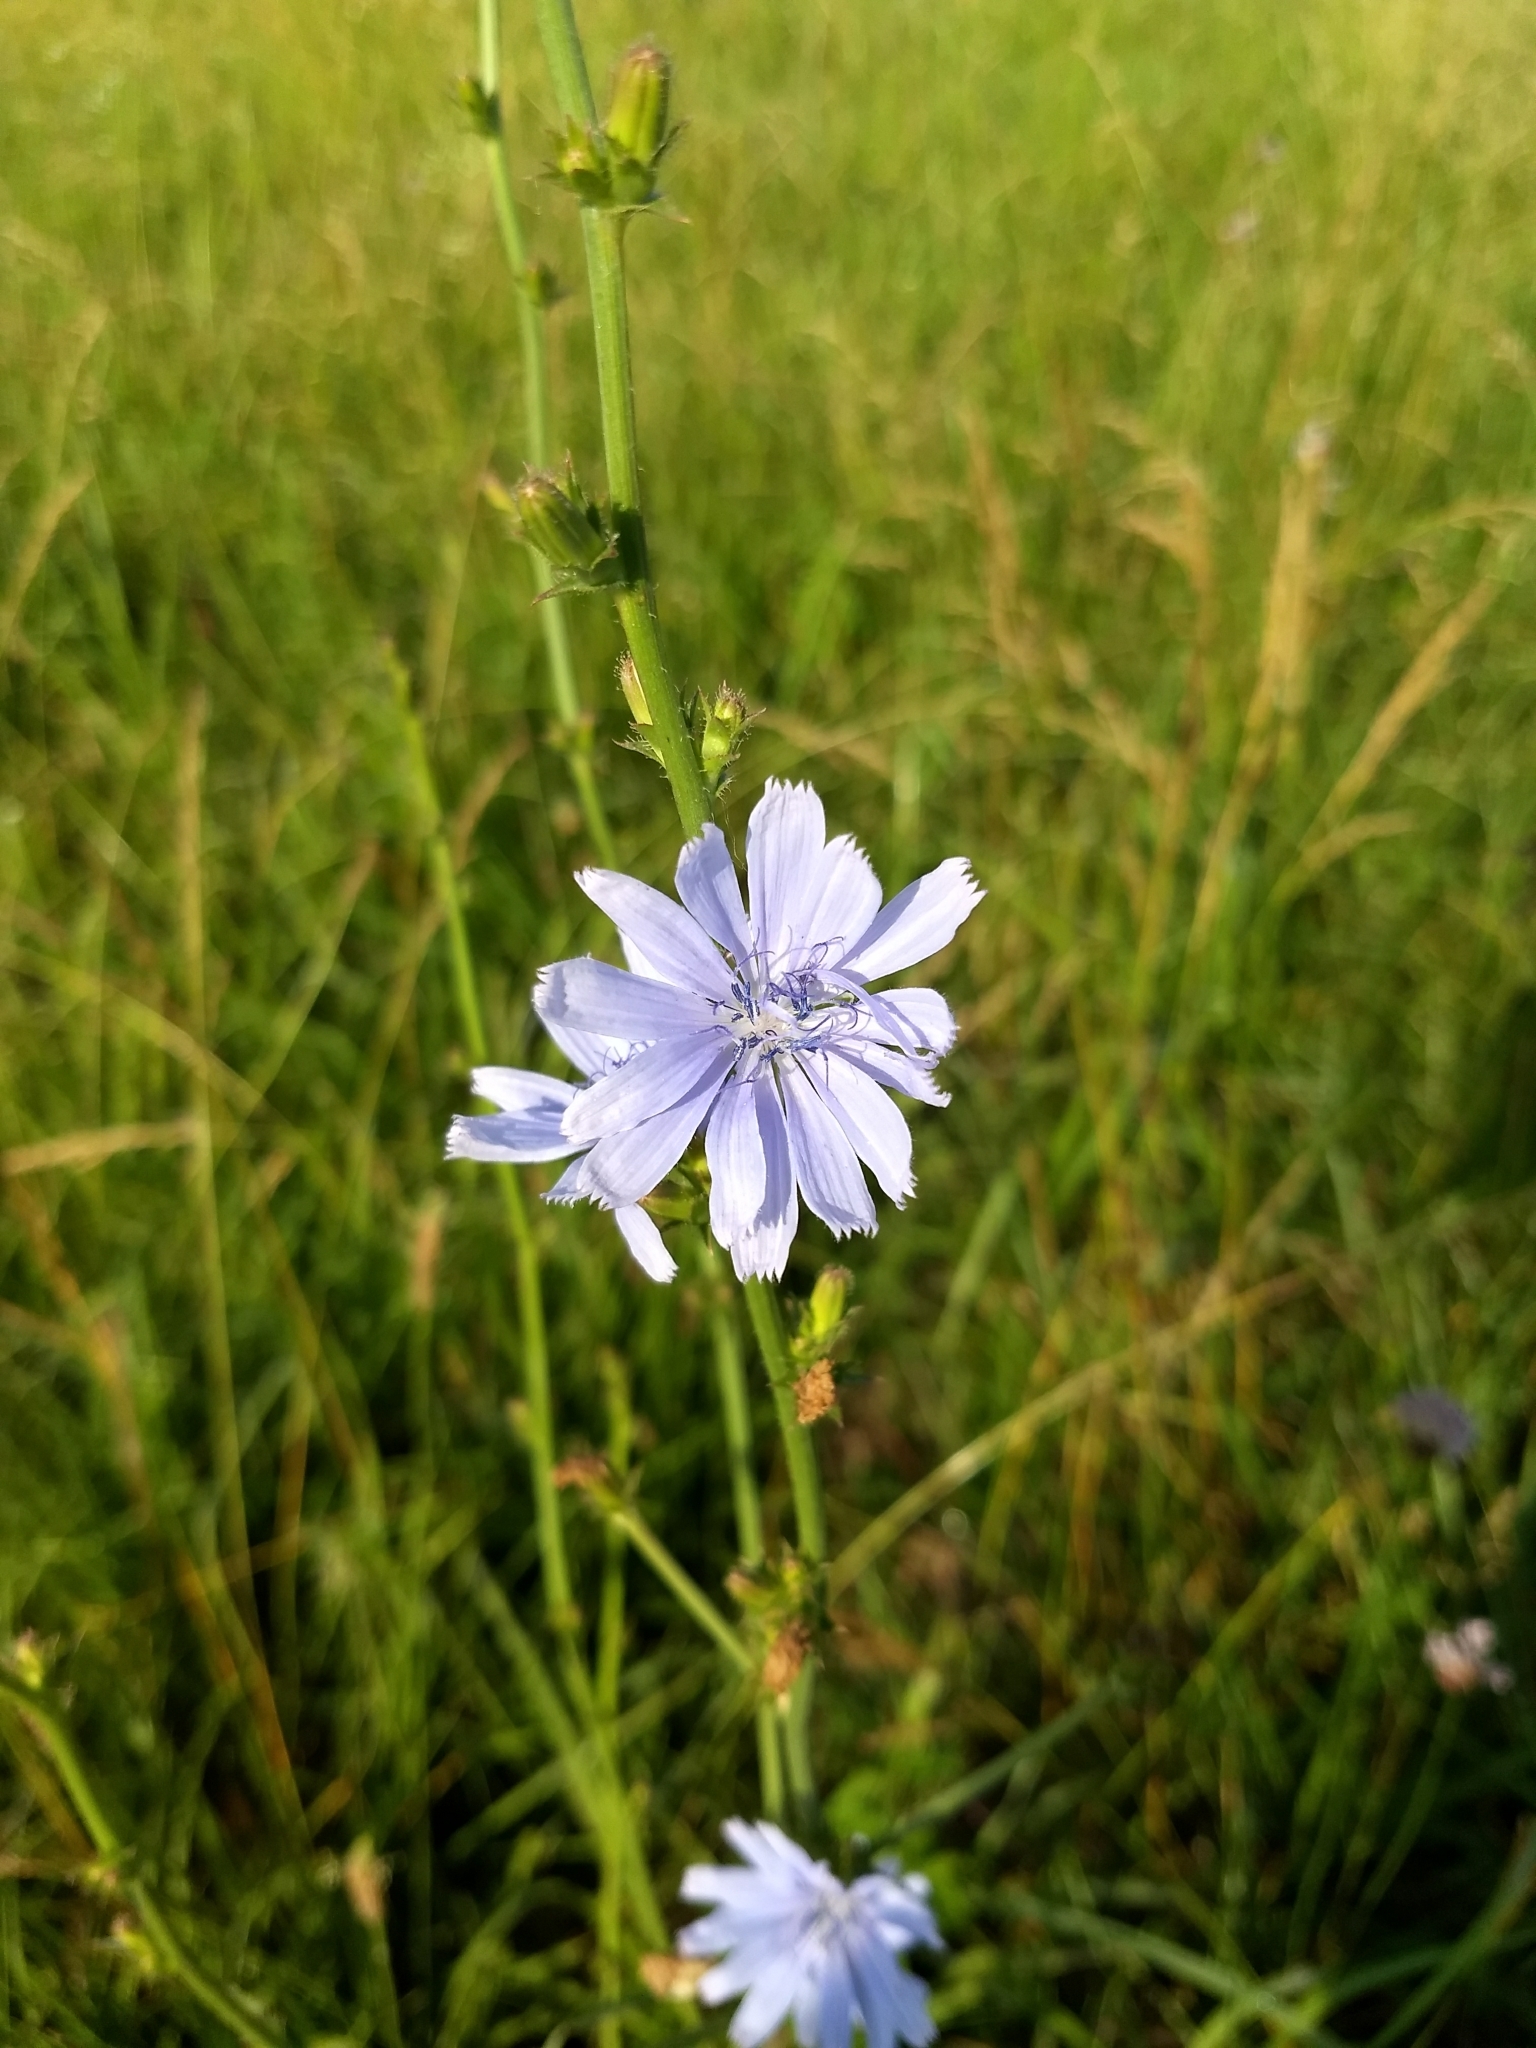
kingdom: Plantae
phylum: Tracheophyta
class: Magnoliopsida
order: Asterales
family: Asteraceae
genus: Cichorium
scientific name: Cichorium intybus
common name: Chicory
